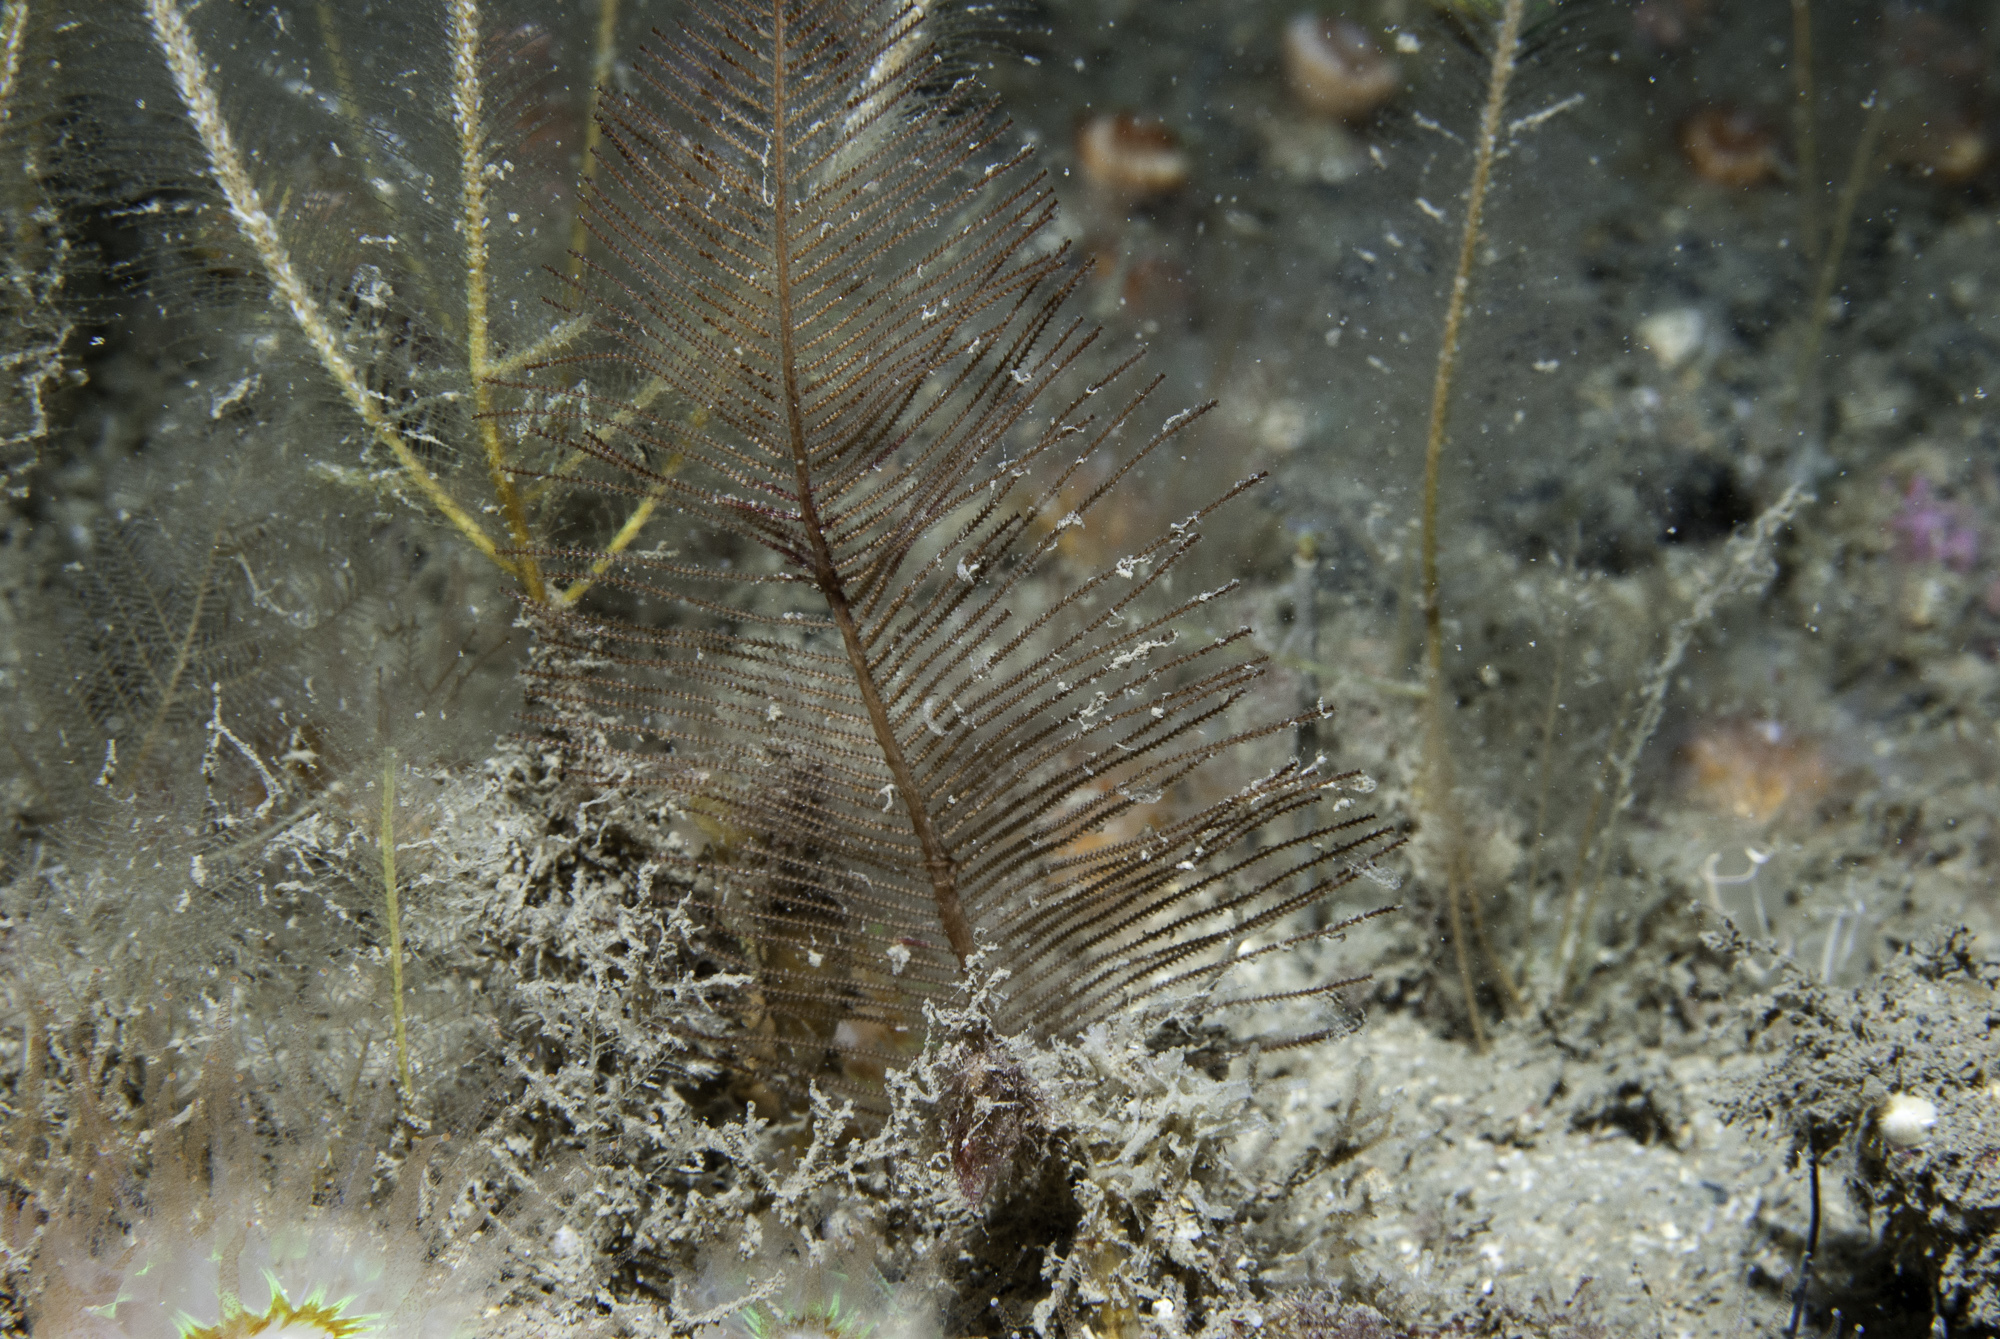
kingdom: Animalia
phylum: Cnidaria
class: Hydrozoa
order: Leptothecata
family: Sertulariidae
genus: Diphasia
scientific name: Diphasia alata
